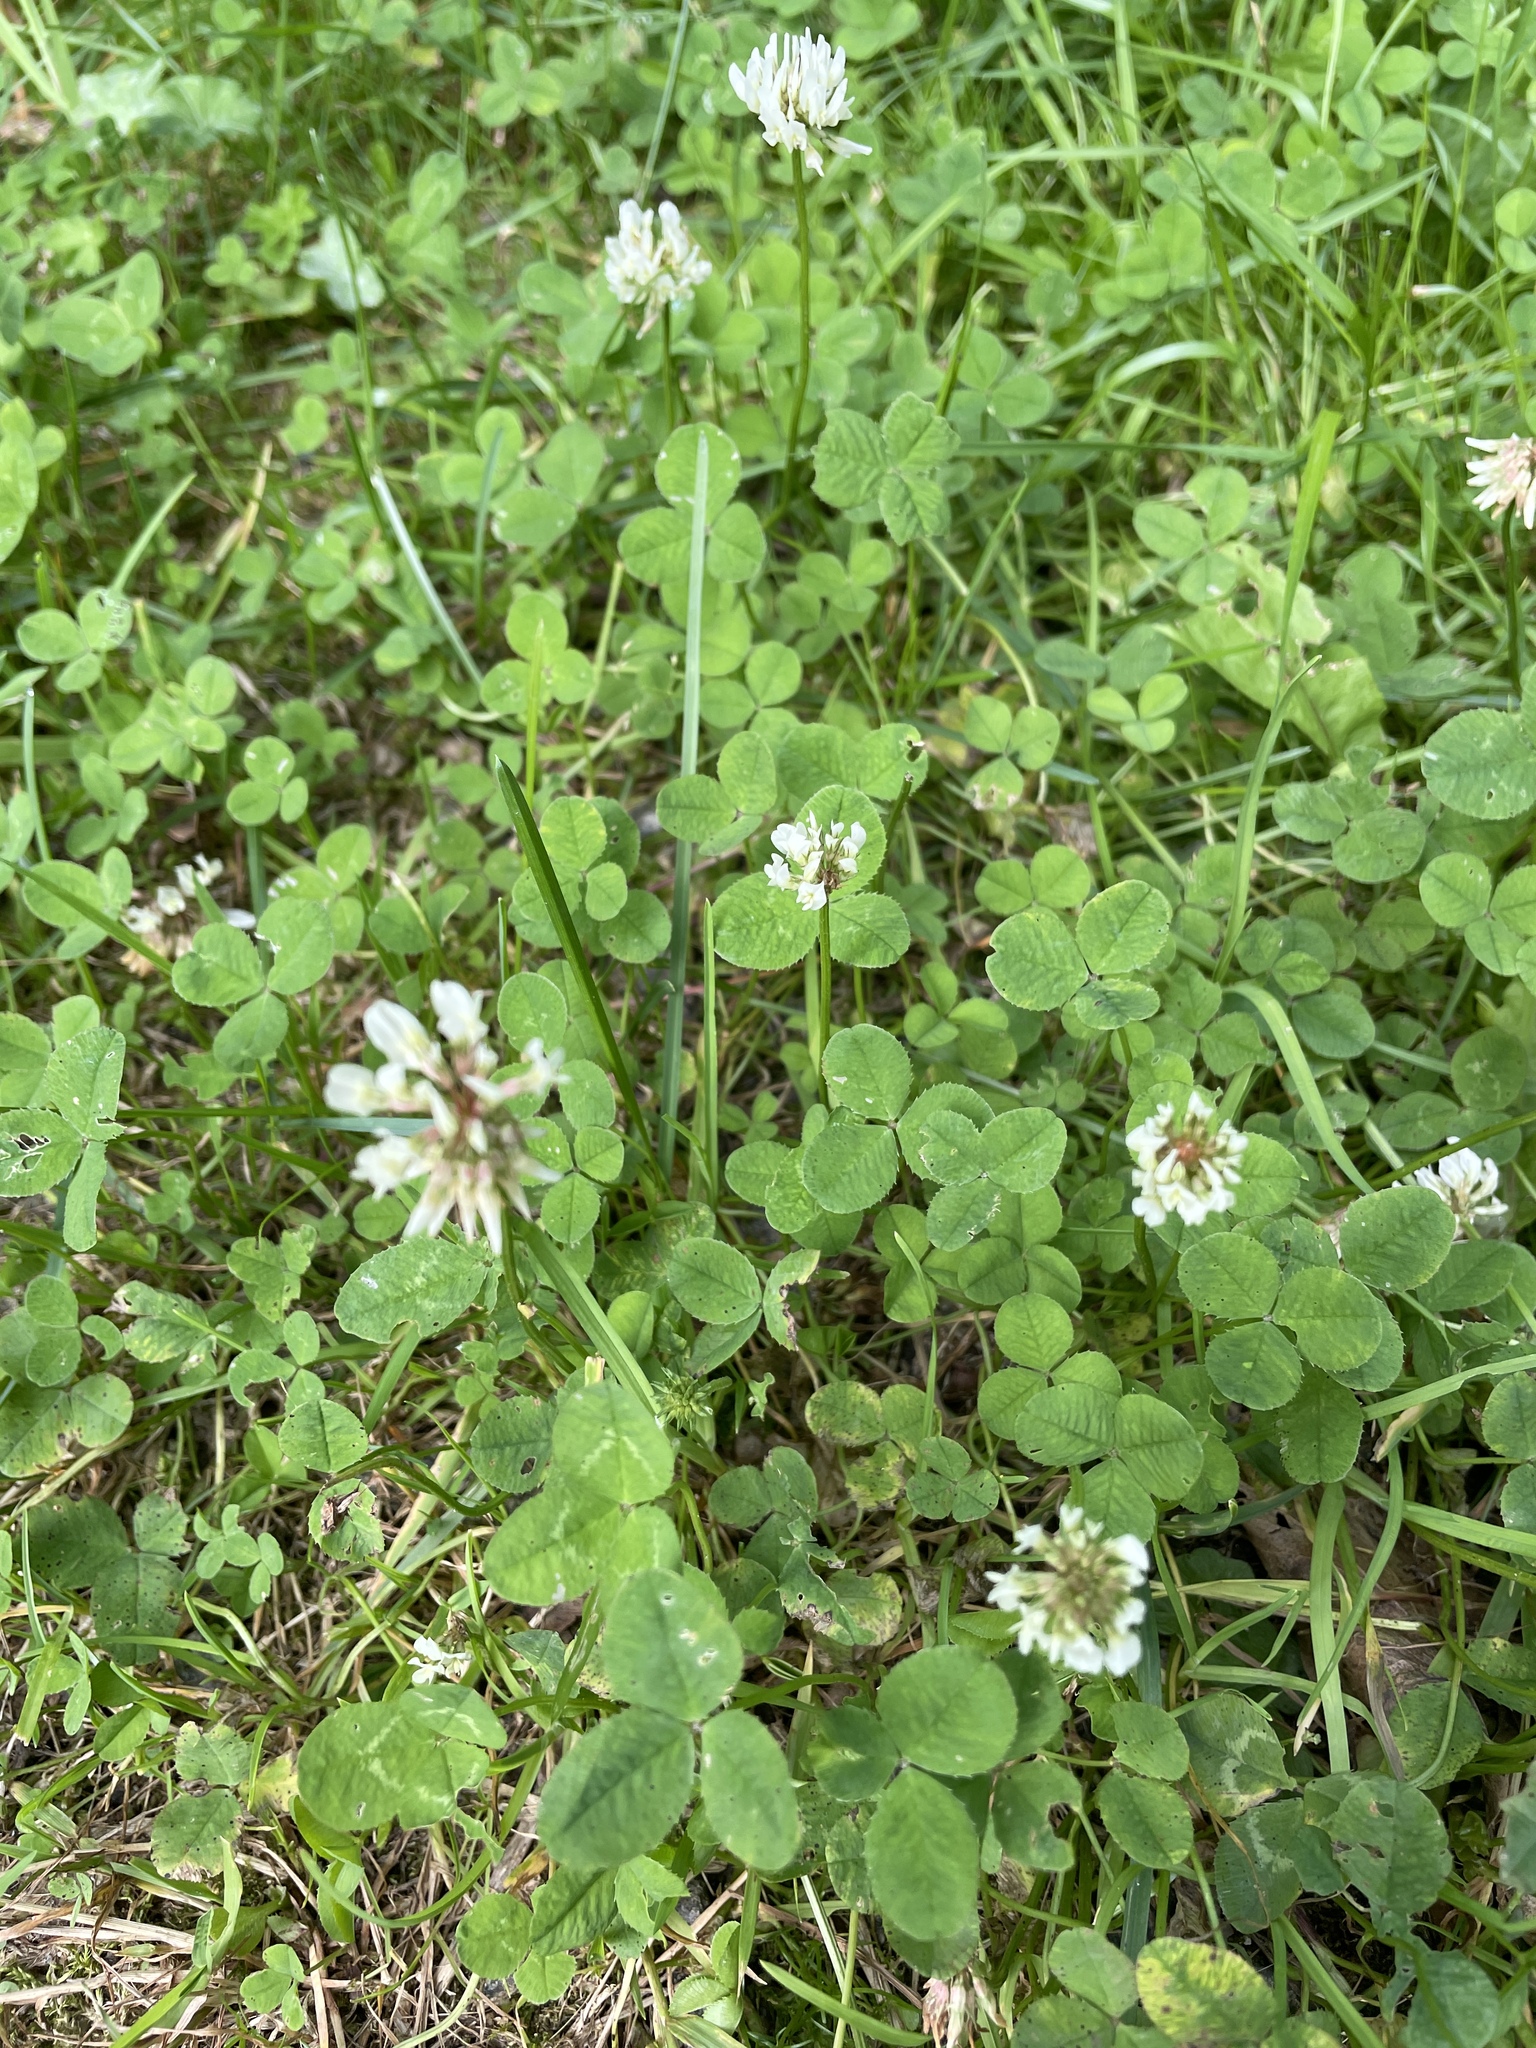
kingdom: Plantae
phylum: Tracheophyta
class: Magnoliopsida
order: Fabales
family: Fabaceae
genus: Trifolium
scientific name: Trifolium repens
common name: White clover
